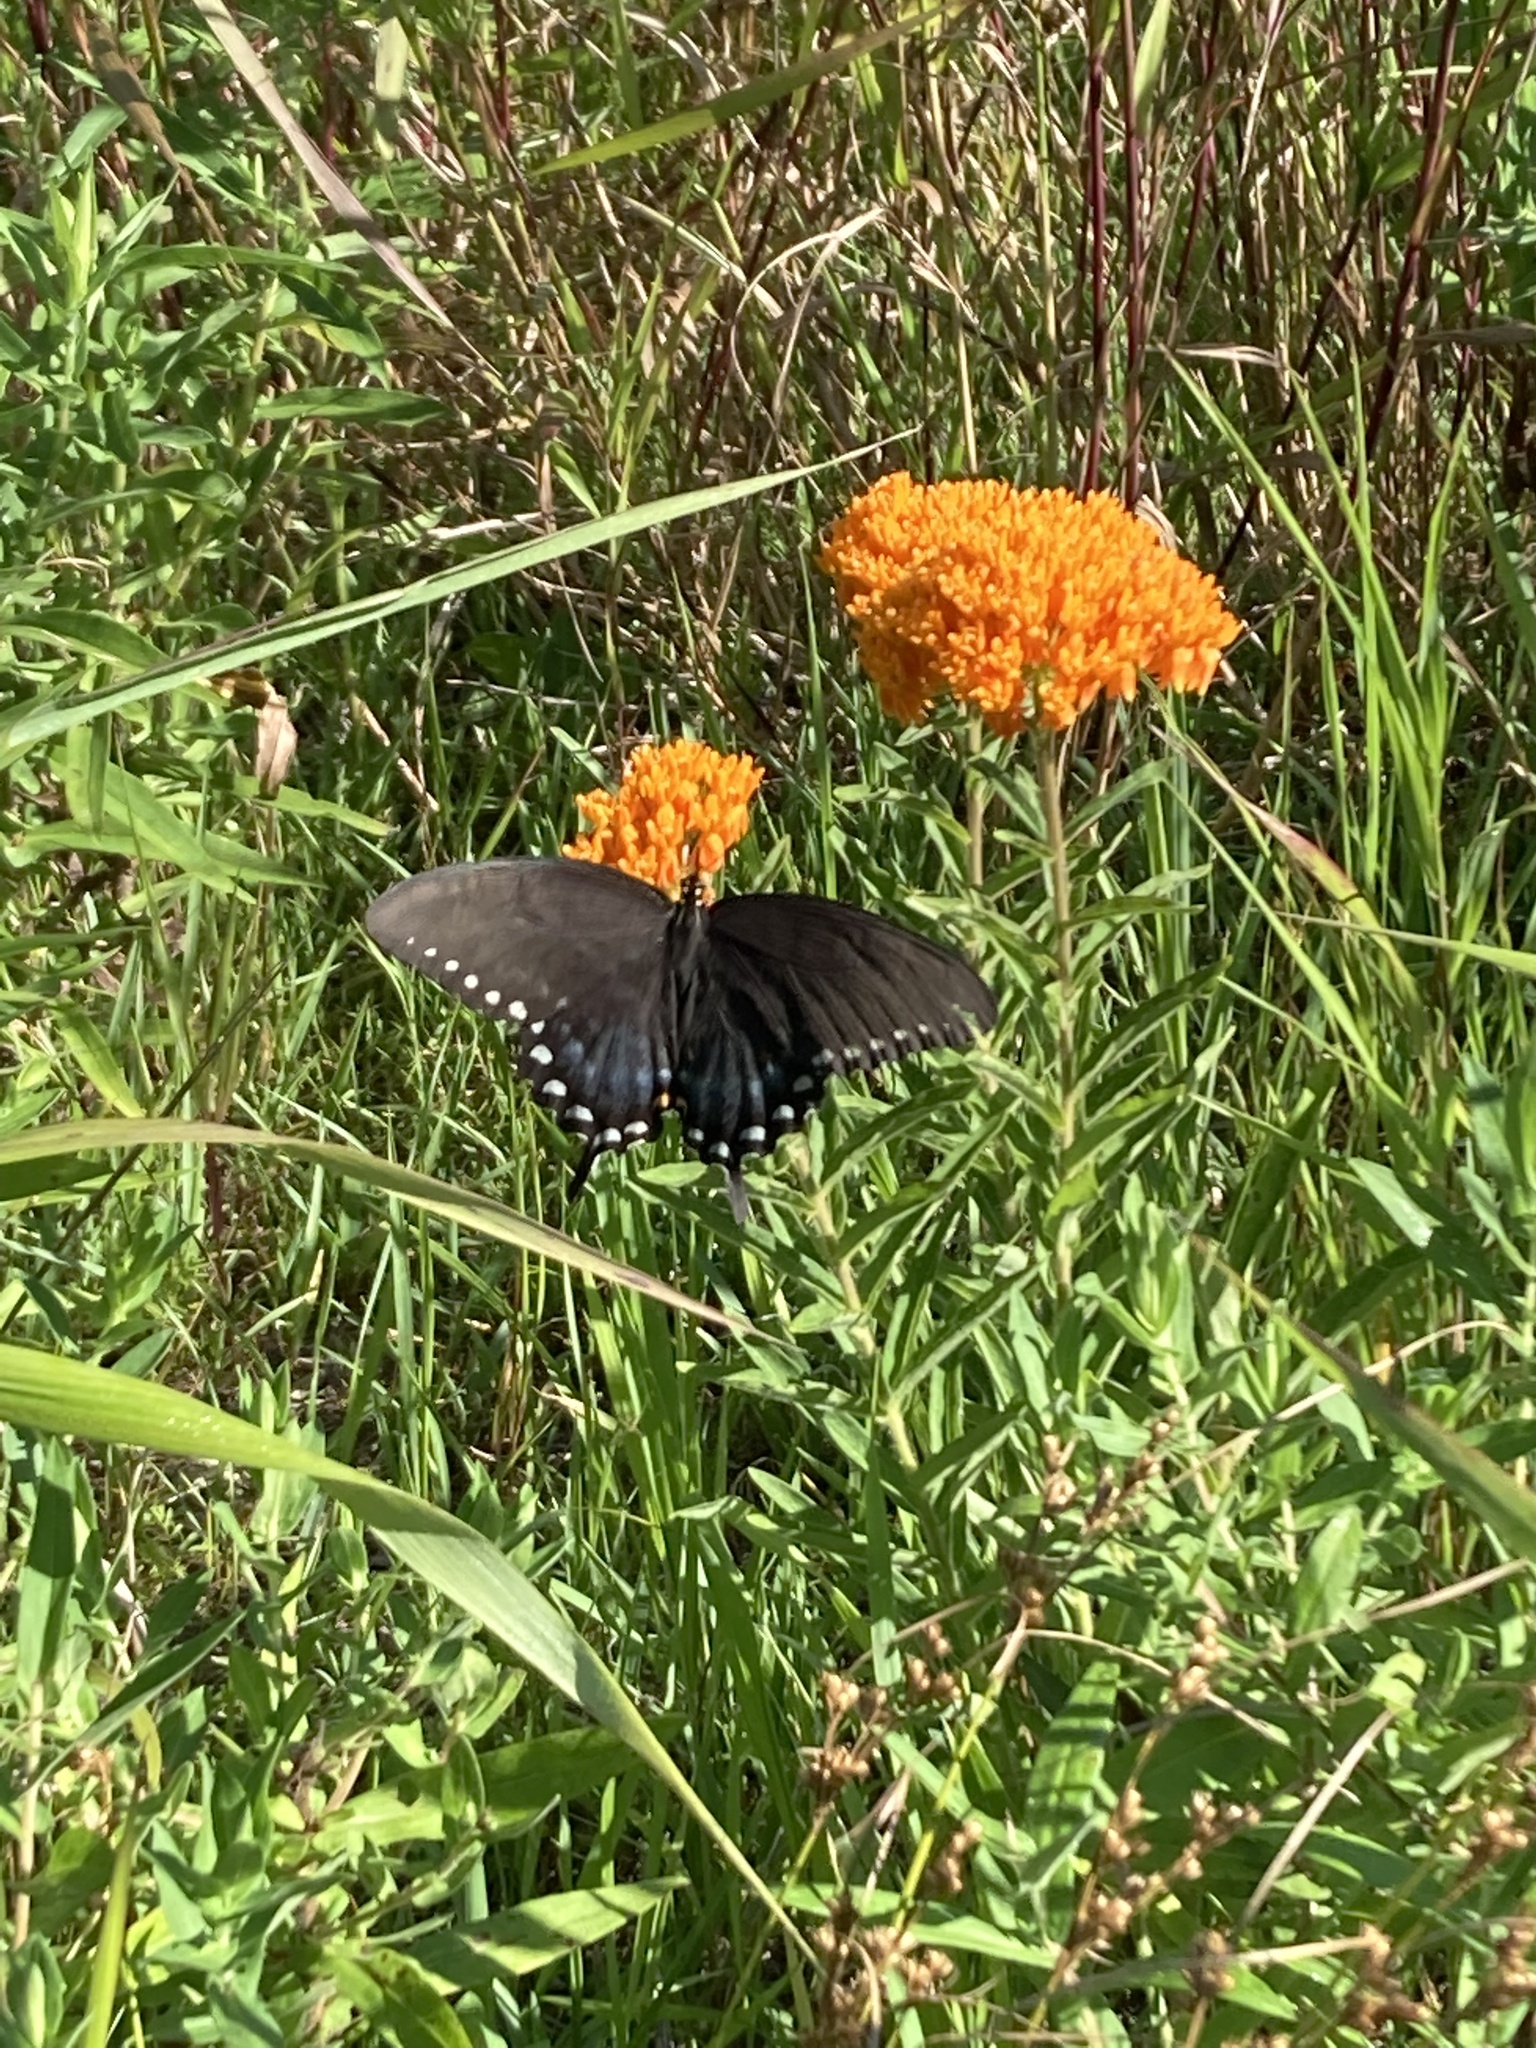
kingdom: Animalia
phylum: Arthropoda
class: Insecta
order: Lepidoptera
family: Papilionidae
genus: Papilio
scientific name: Papilio troilus
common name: Spicebush swallowtail
